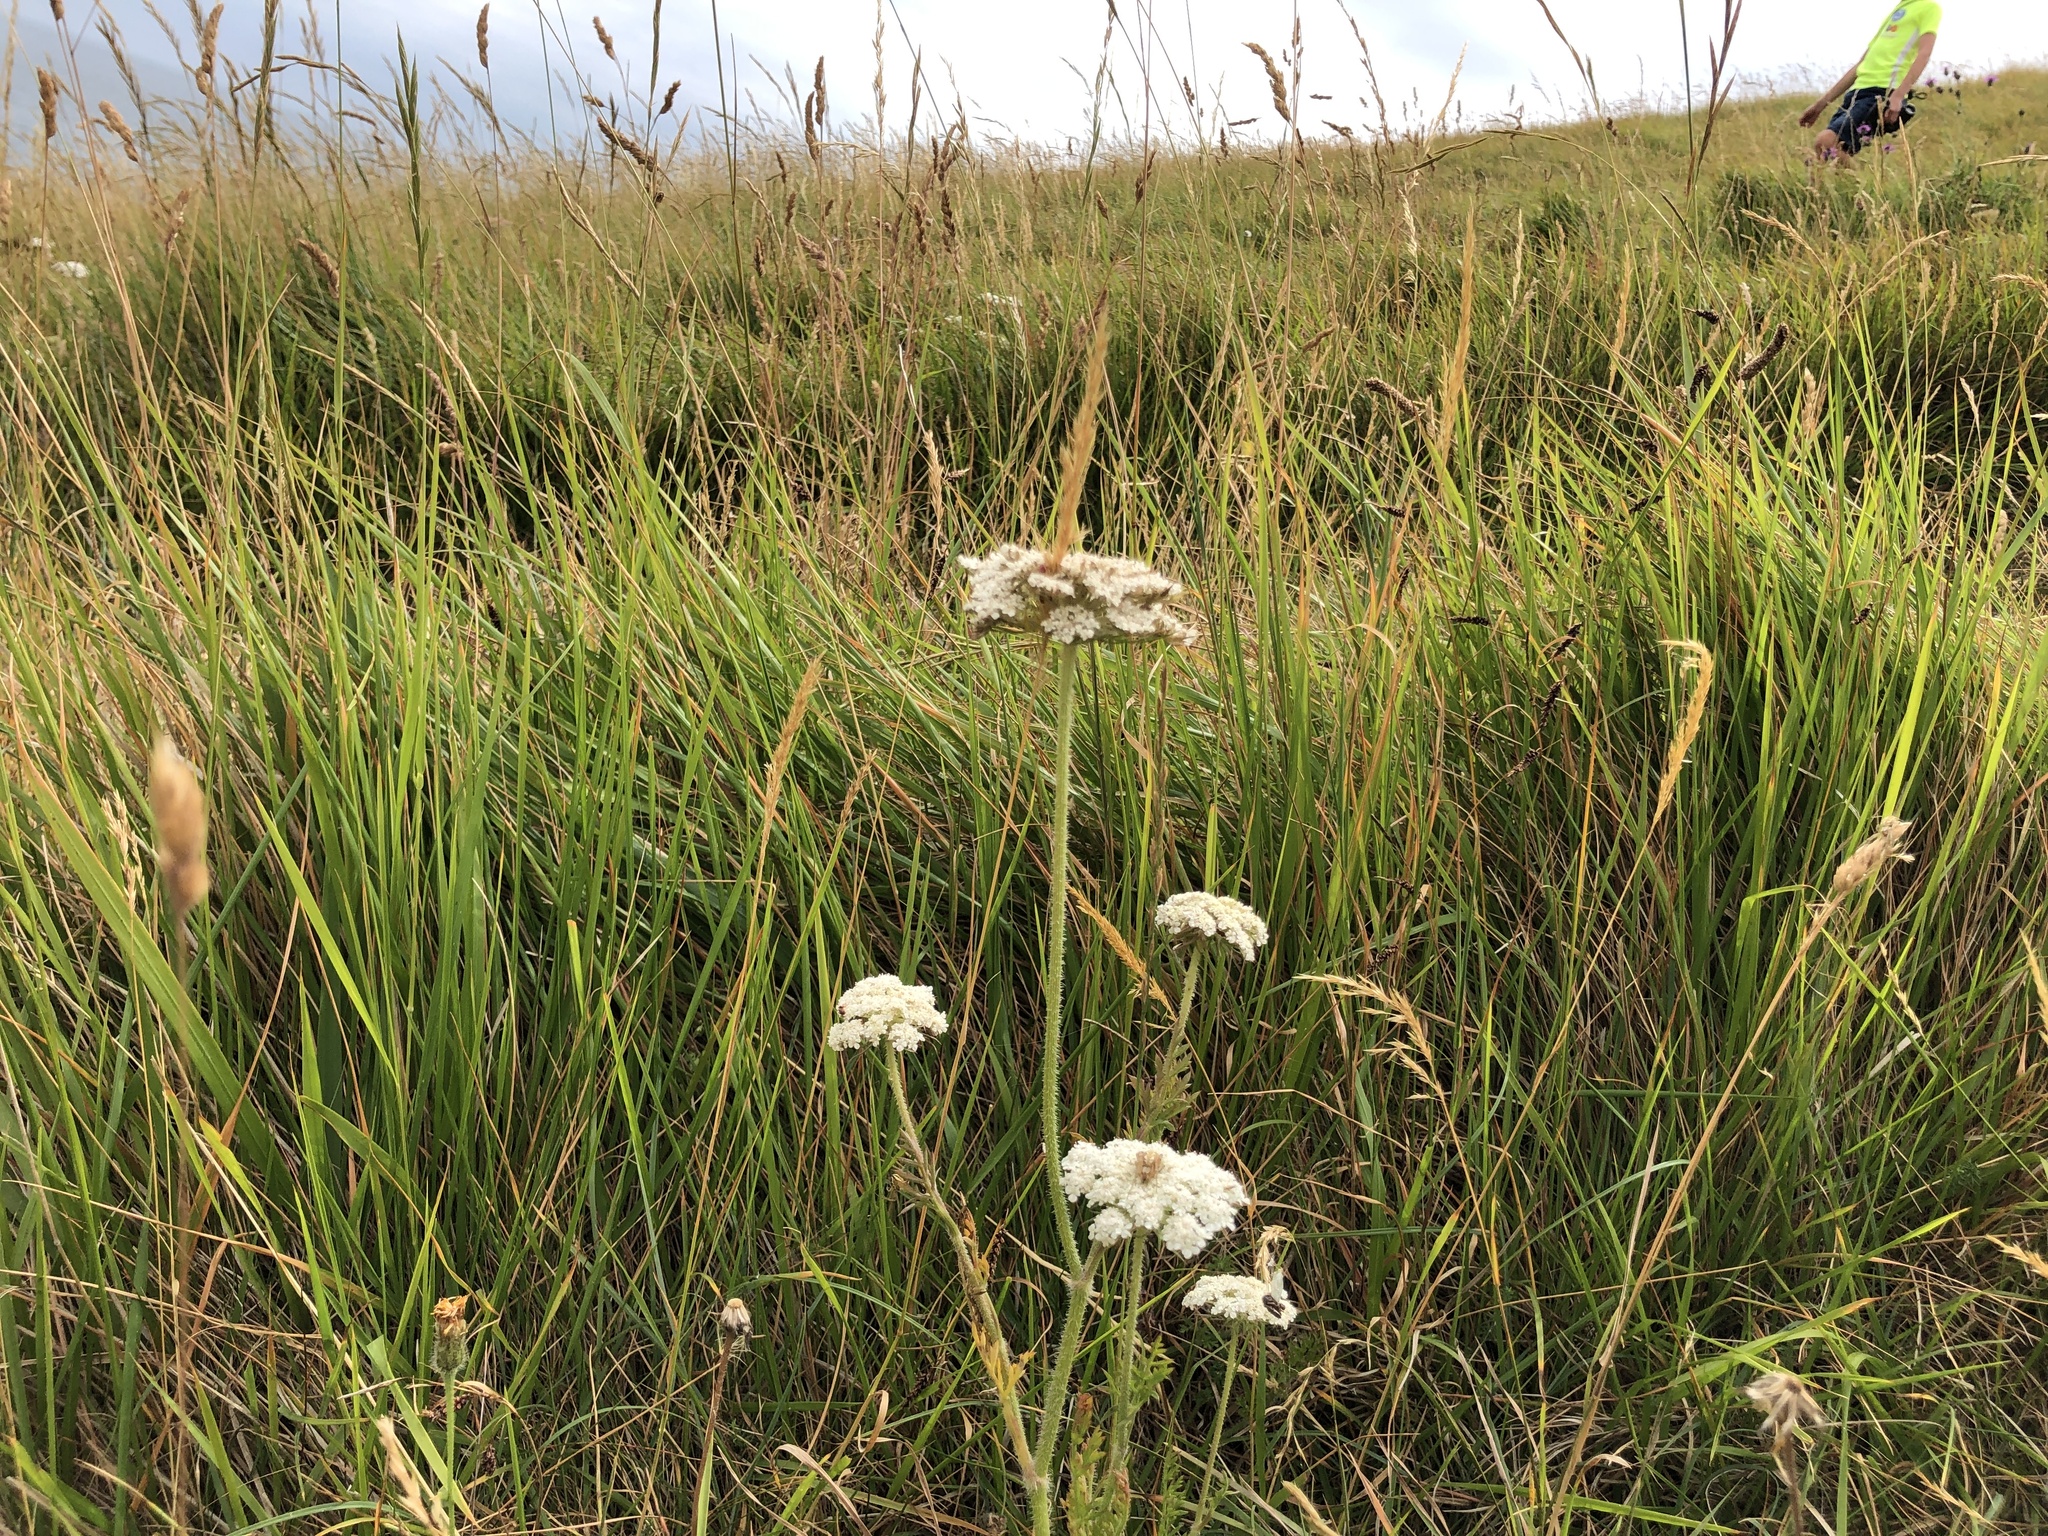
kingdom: Animalia
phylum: Arthropoda
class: Arachnida
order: Araneae
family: Araneidae
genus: Neoscona
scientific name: Neoscona adianta
